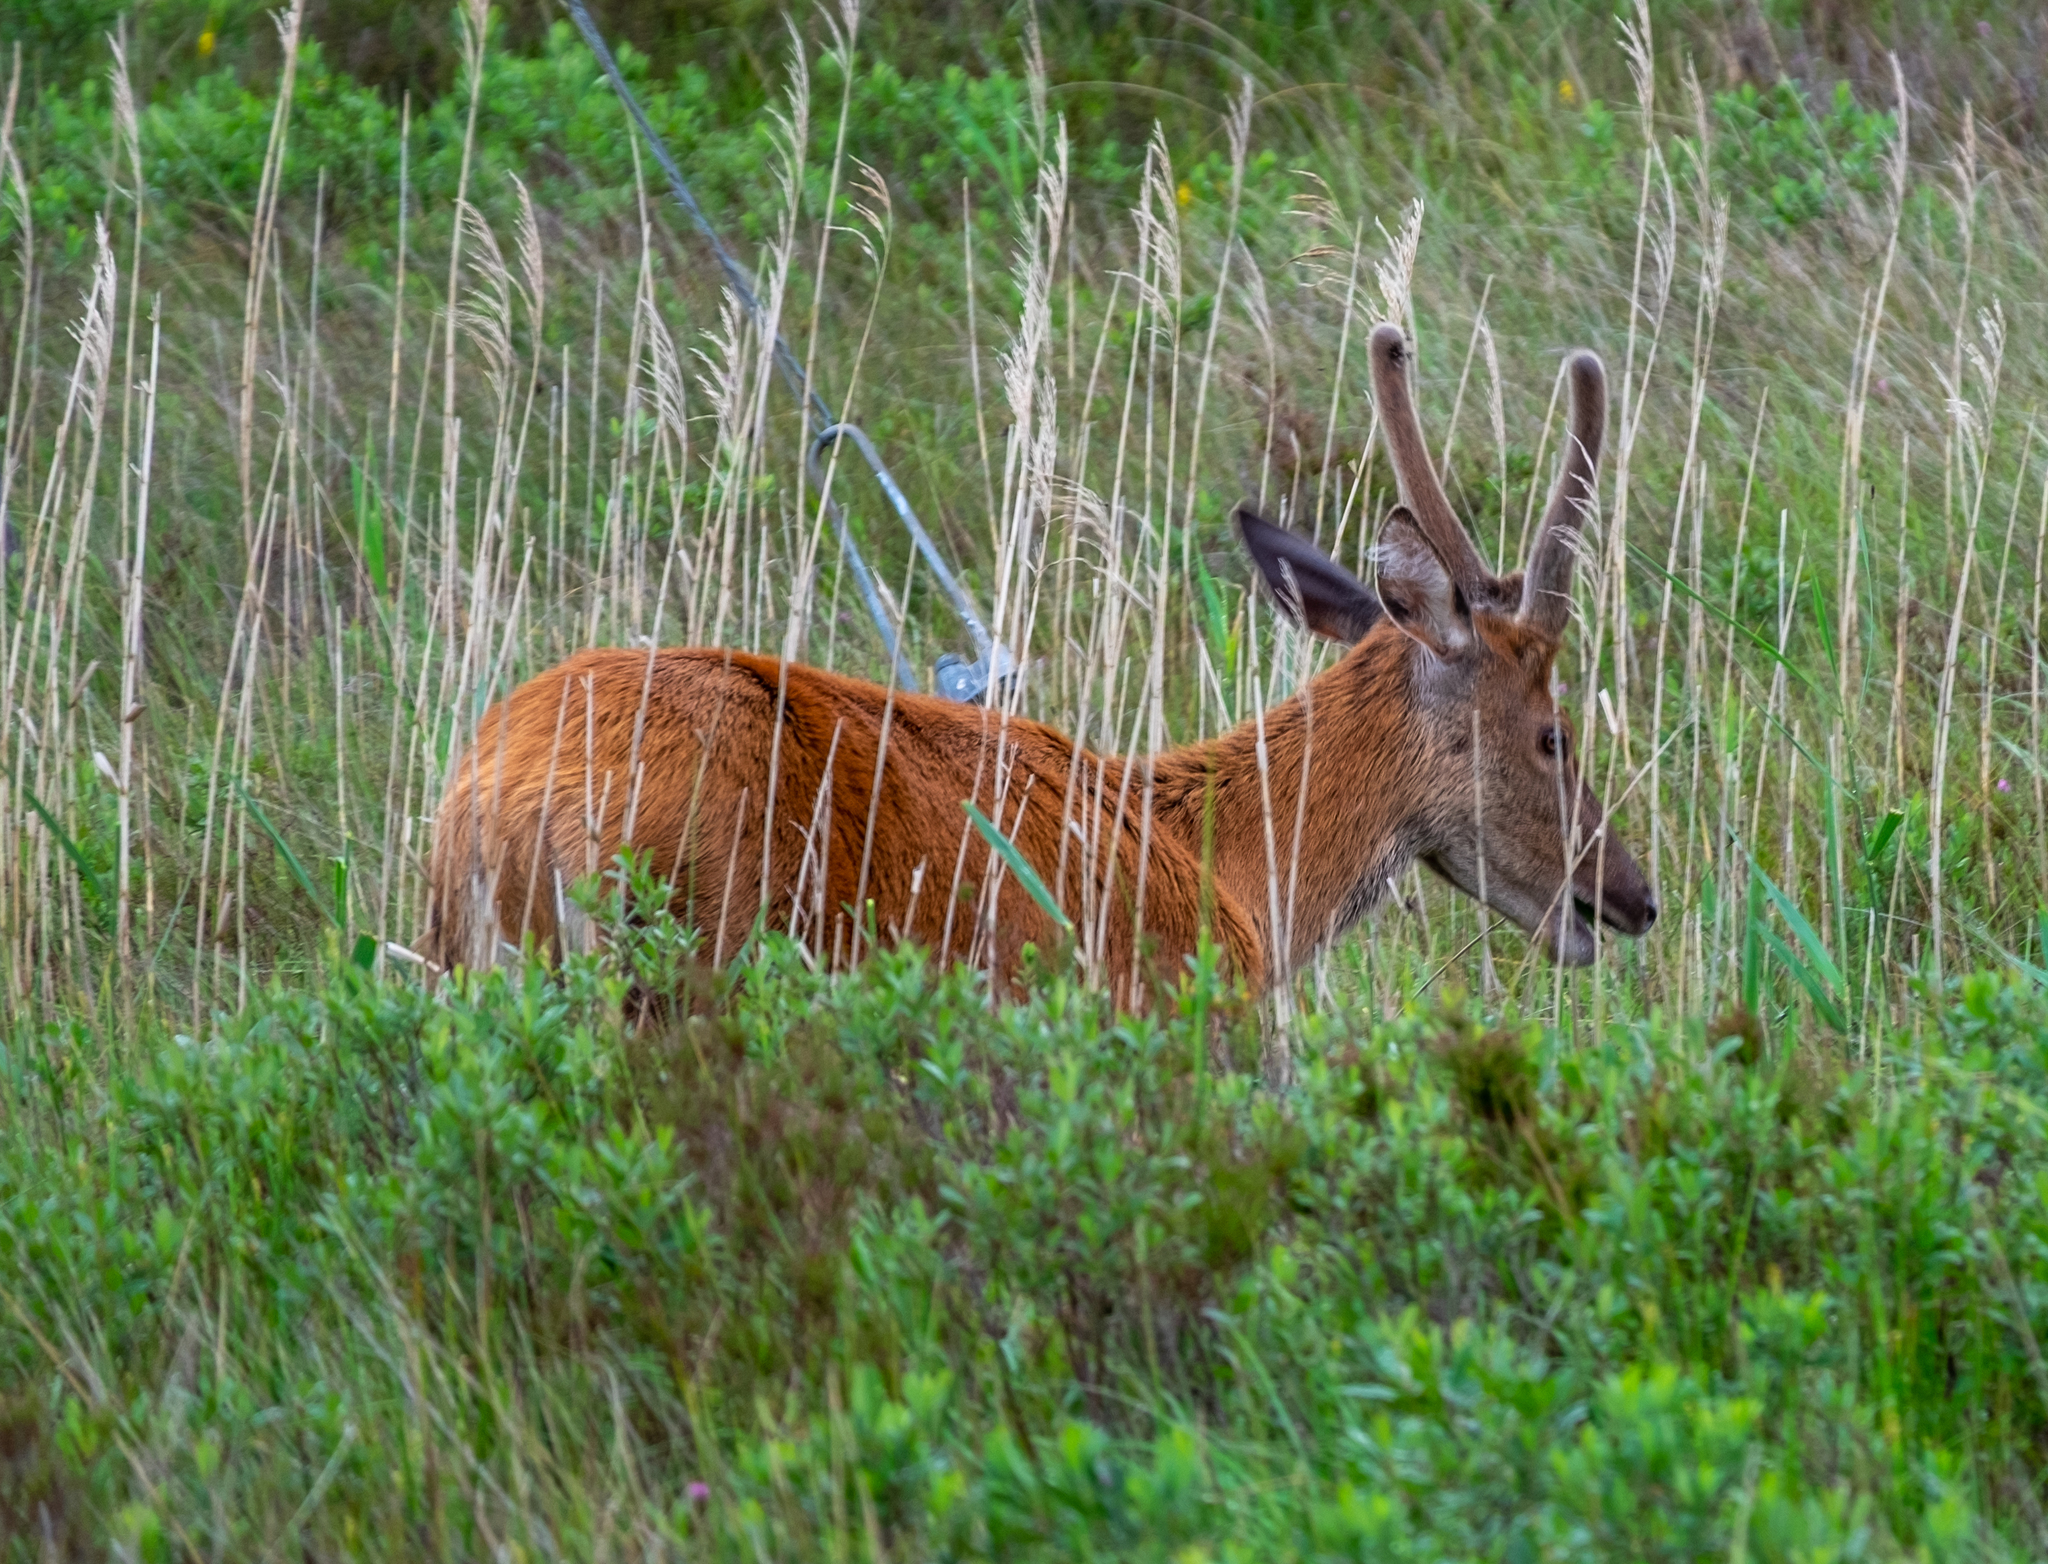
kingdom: Animalia
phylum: Chordata
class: Mammalia
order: Artiodactyla
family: Cervidae
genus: Cervus
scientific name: Cervus elaphus
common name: Red deer
